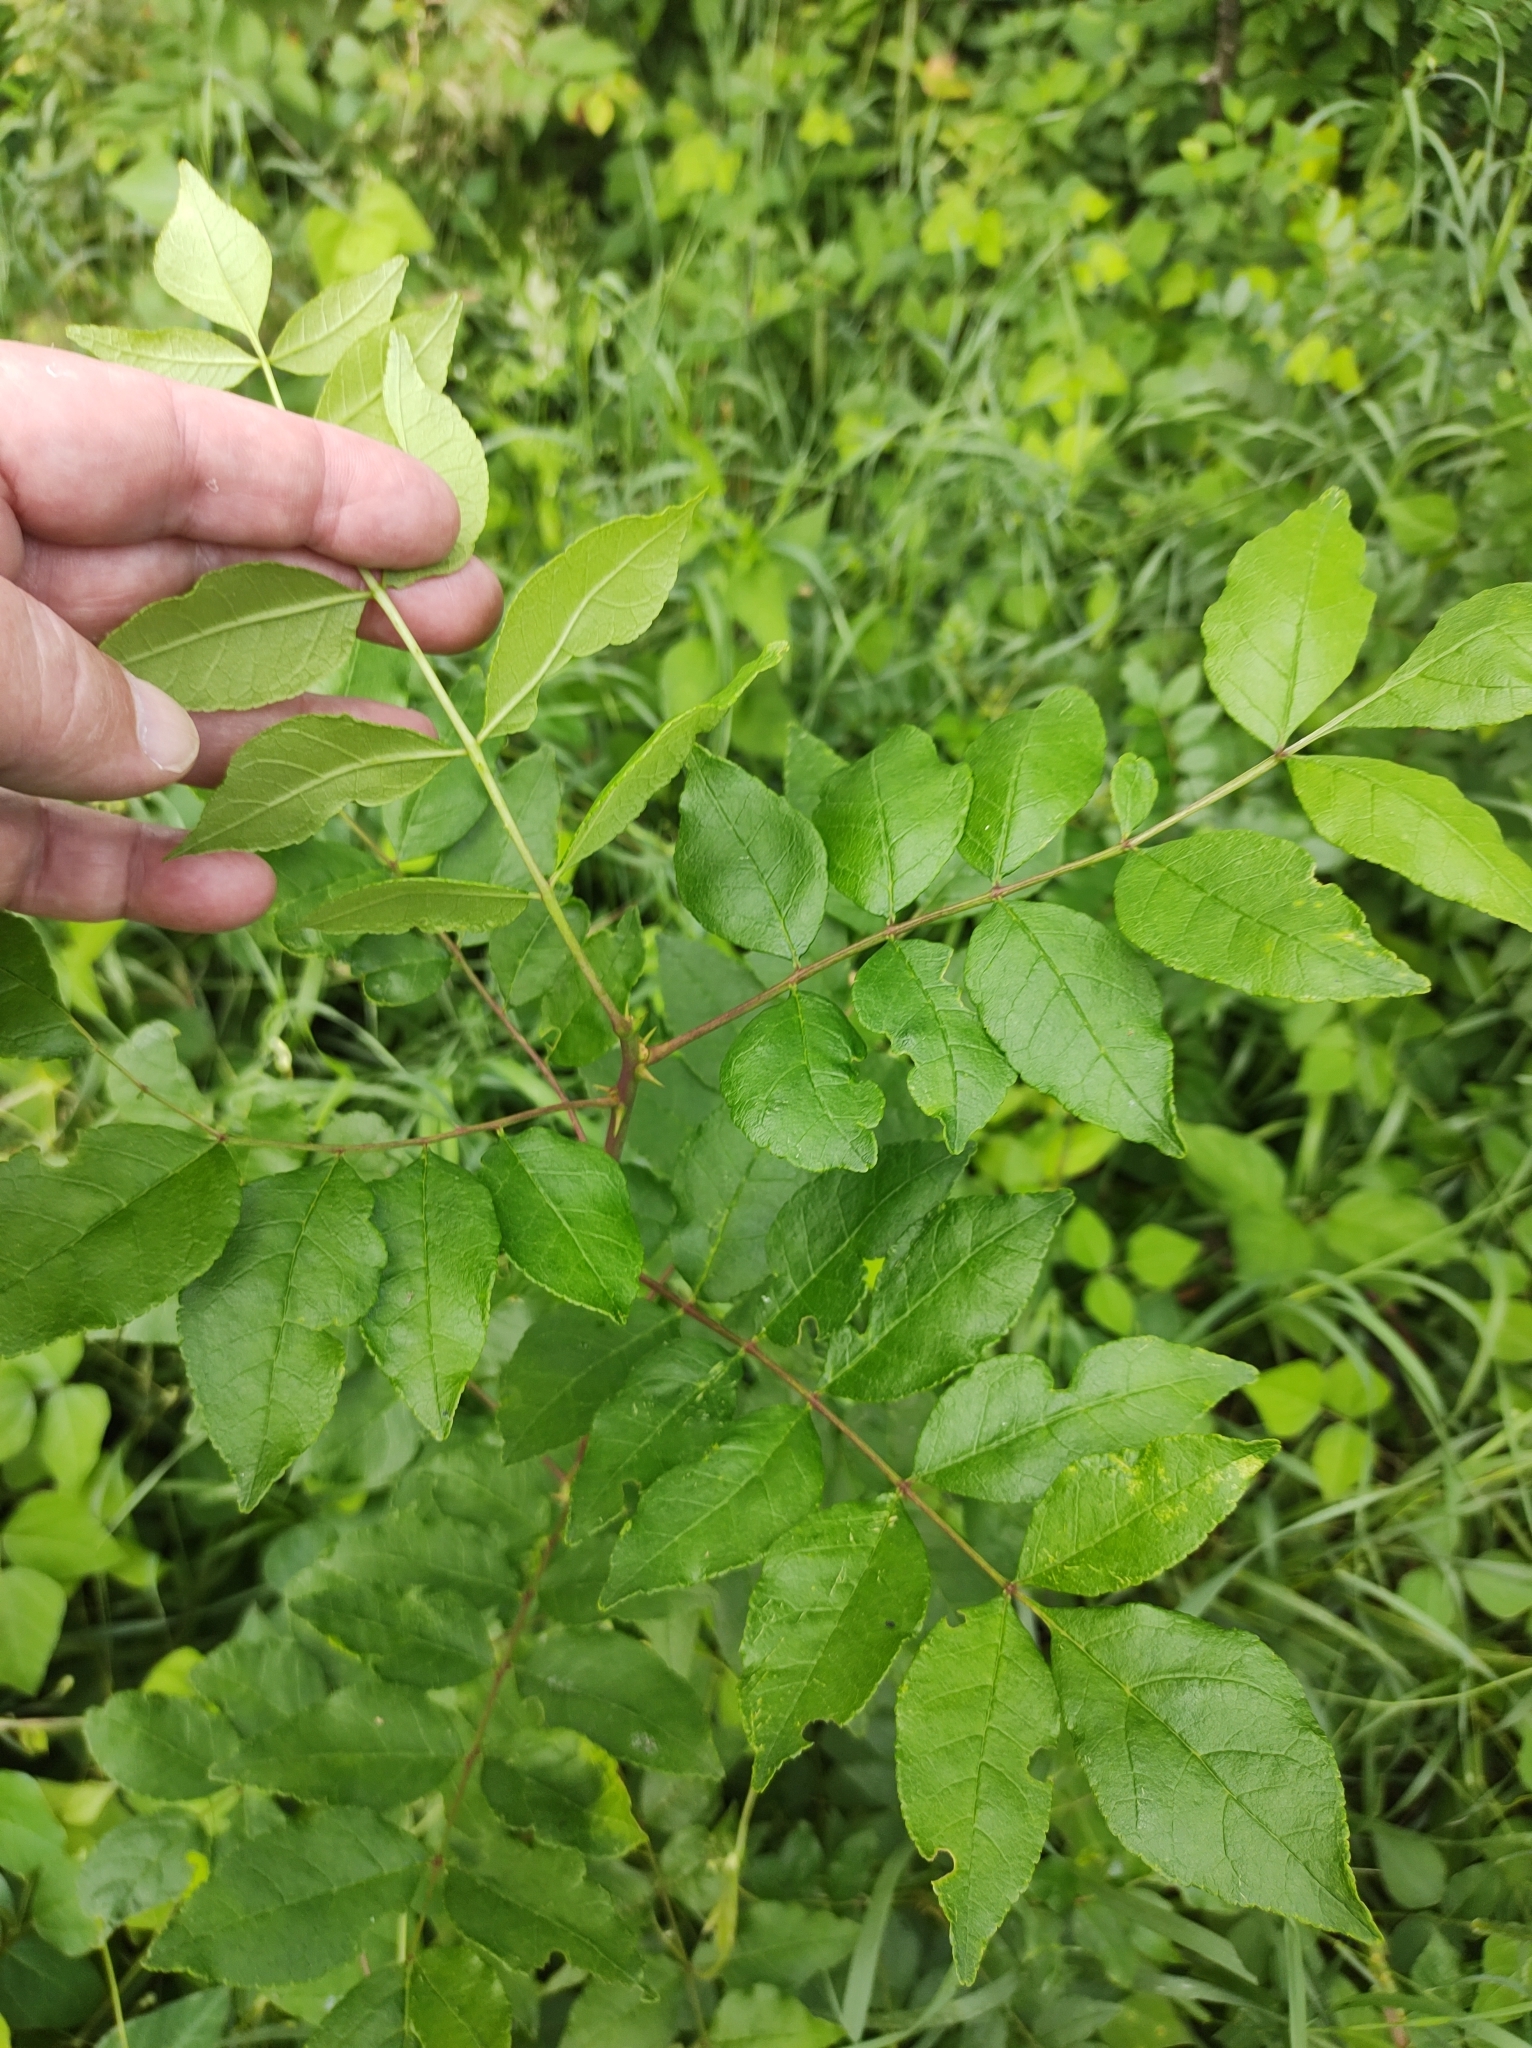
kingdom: Plantae
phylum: Tracheophyta
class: Magnoliopsida
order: Sapindales
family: Rutaceae
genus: Zanthoxylum
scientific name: Zanthoxylum americanum
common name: Northern prickly-ash
